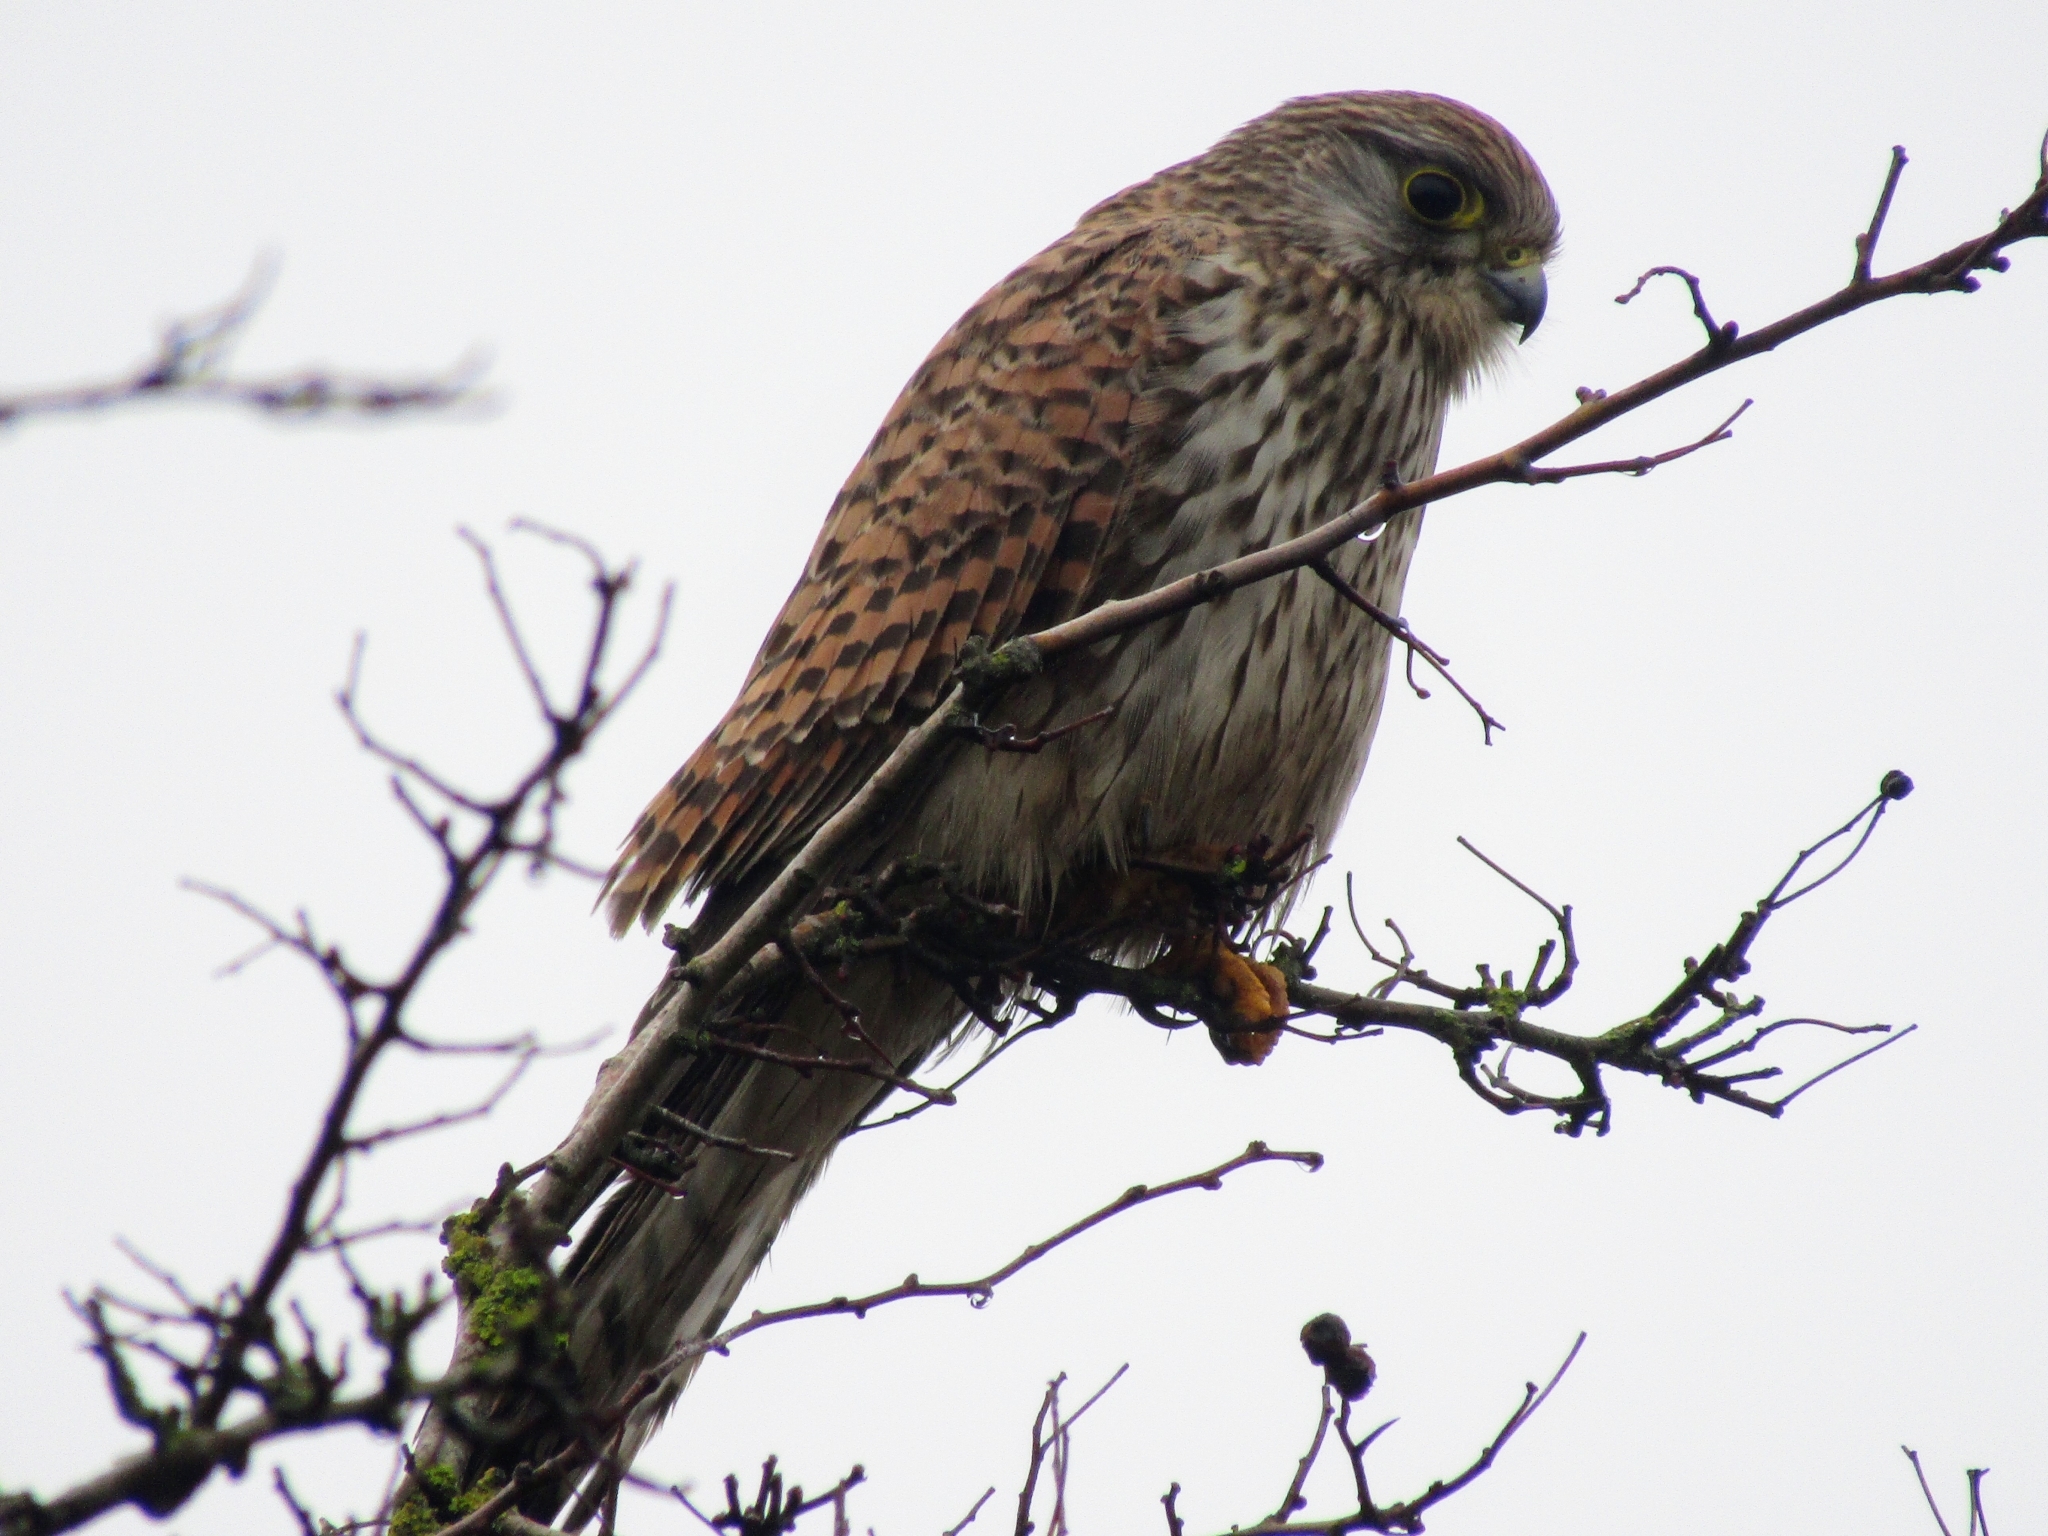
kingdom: Animalia
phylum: Chordata
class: Aves
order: Falconiformes
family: Falconidae
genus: Falco
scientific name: Falco tinnunculus
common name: Common kestrel
